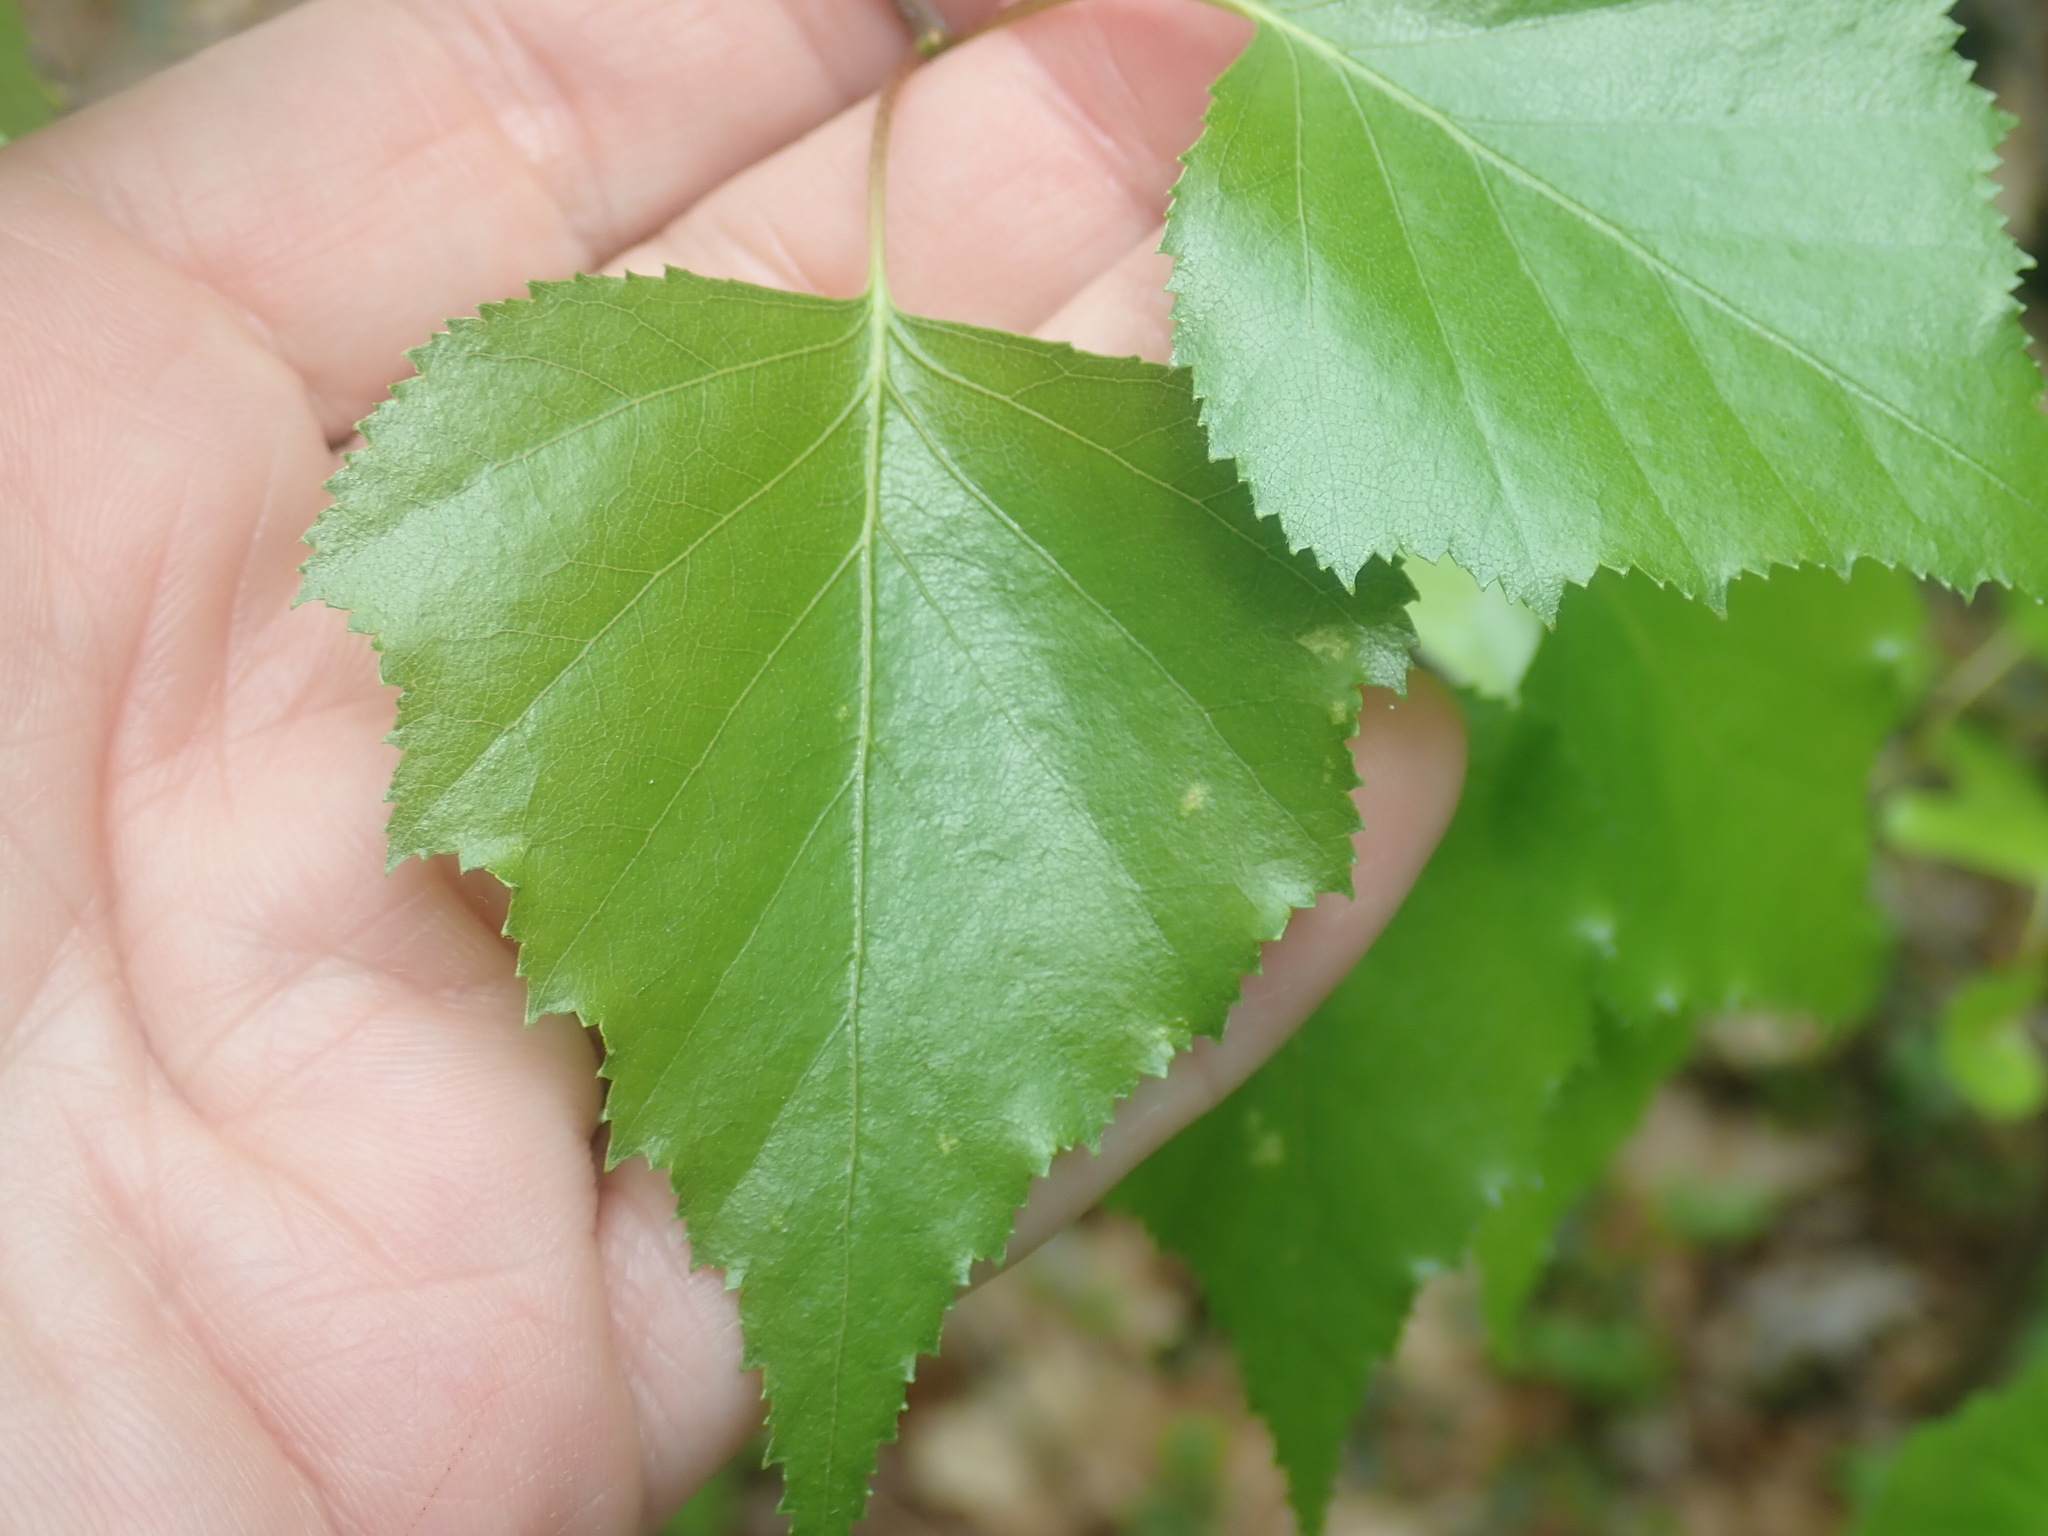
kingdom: Plantae
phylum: Tracheophyta
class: Magnoliopsida
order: Fagales
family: Betulaceae
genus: Betula
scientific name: Betula populifolia
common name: Fire birch
